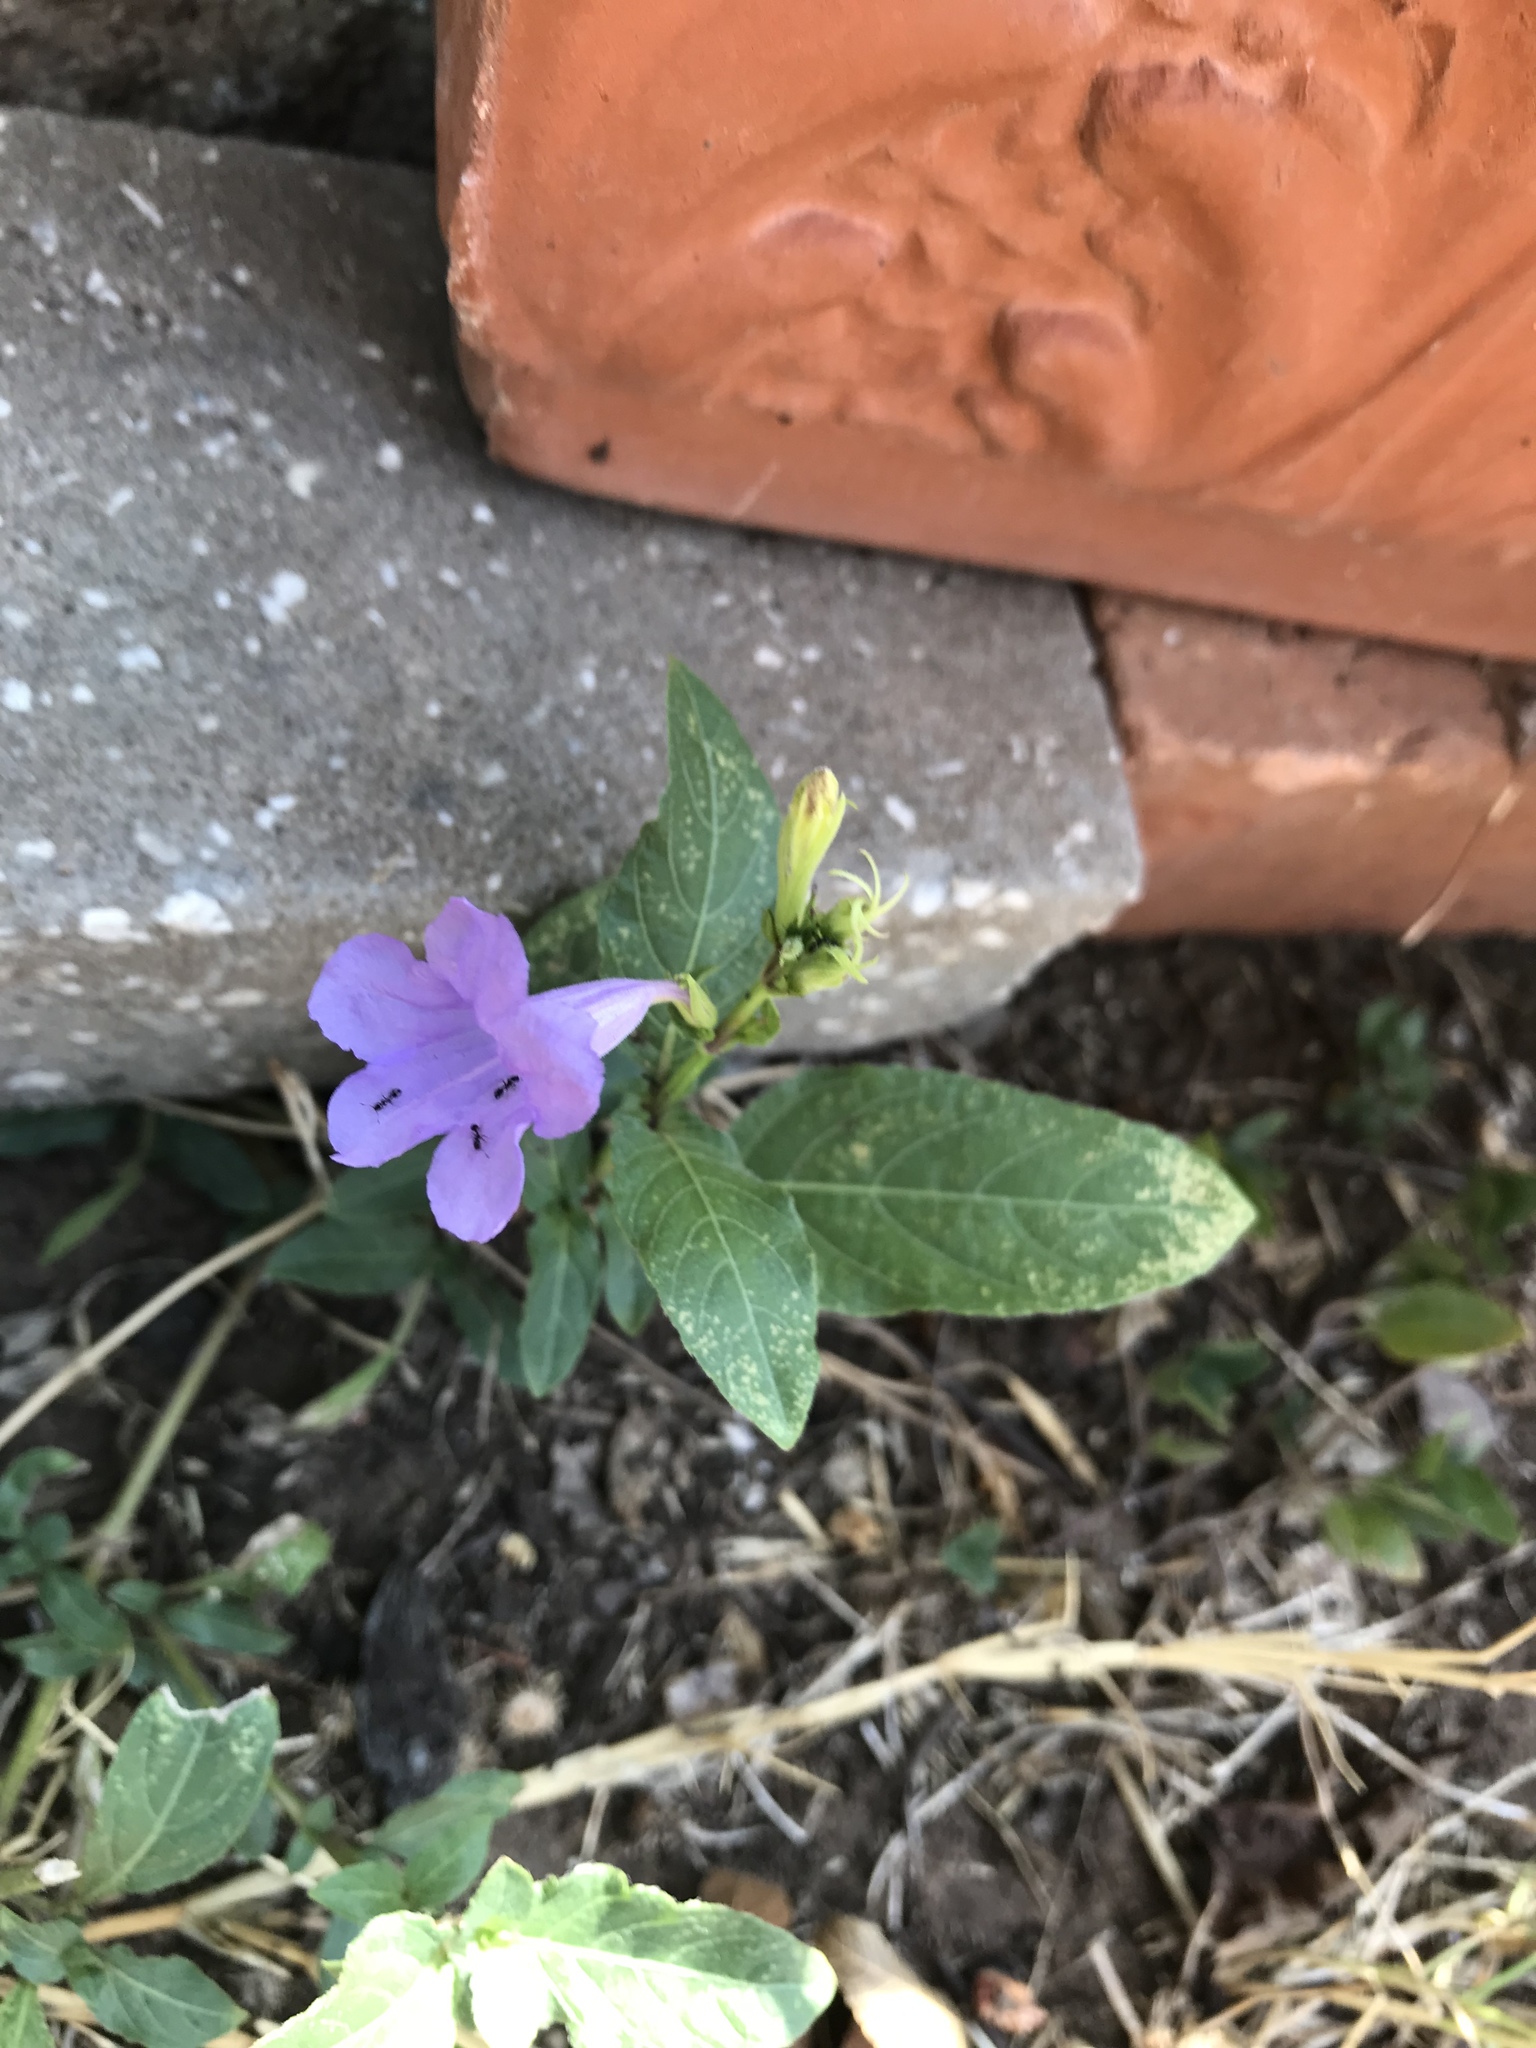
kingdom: Plantae
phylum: Tracheophyta
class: Magnoliopsida
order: Lamiales
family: Acanthaceae
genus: Ruellia
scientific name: Ruellia ciliatiflora
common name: Hairyflower wild petunia
